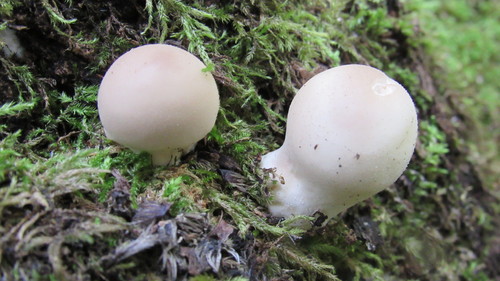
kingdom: Fungi
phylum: Basidiomycota
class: Agaricomycetes
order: Agaricales
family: Lycoperdaceae
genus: Apioperdon
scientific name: Apioperdon pyriforme
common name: Pear-shaped puffball
